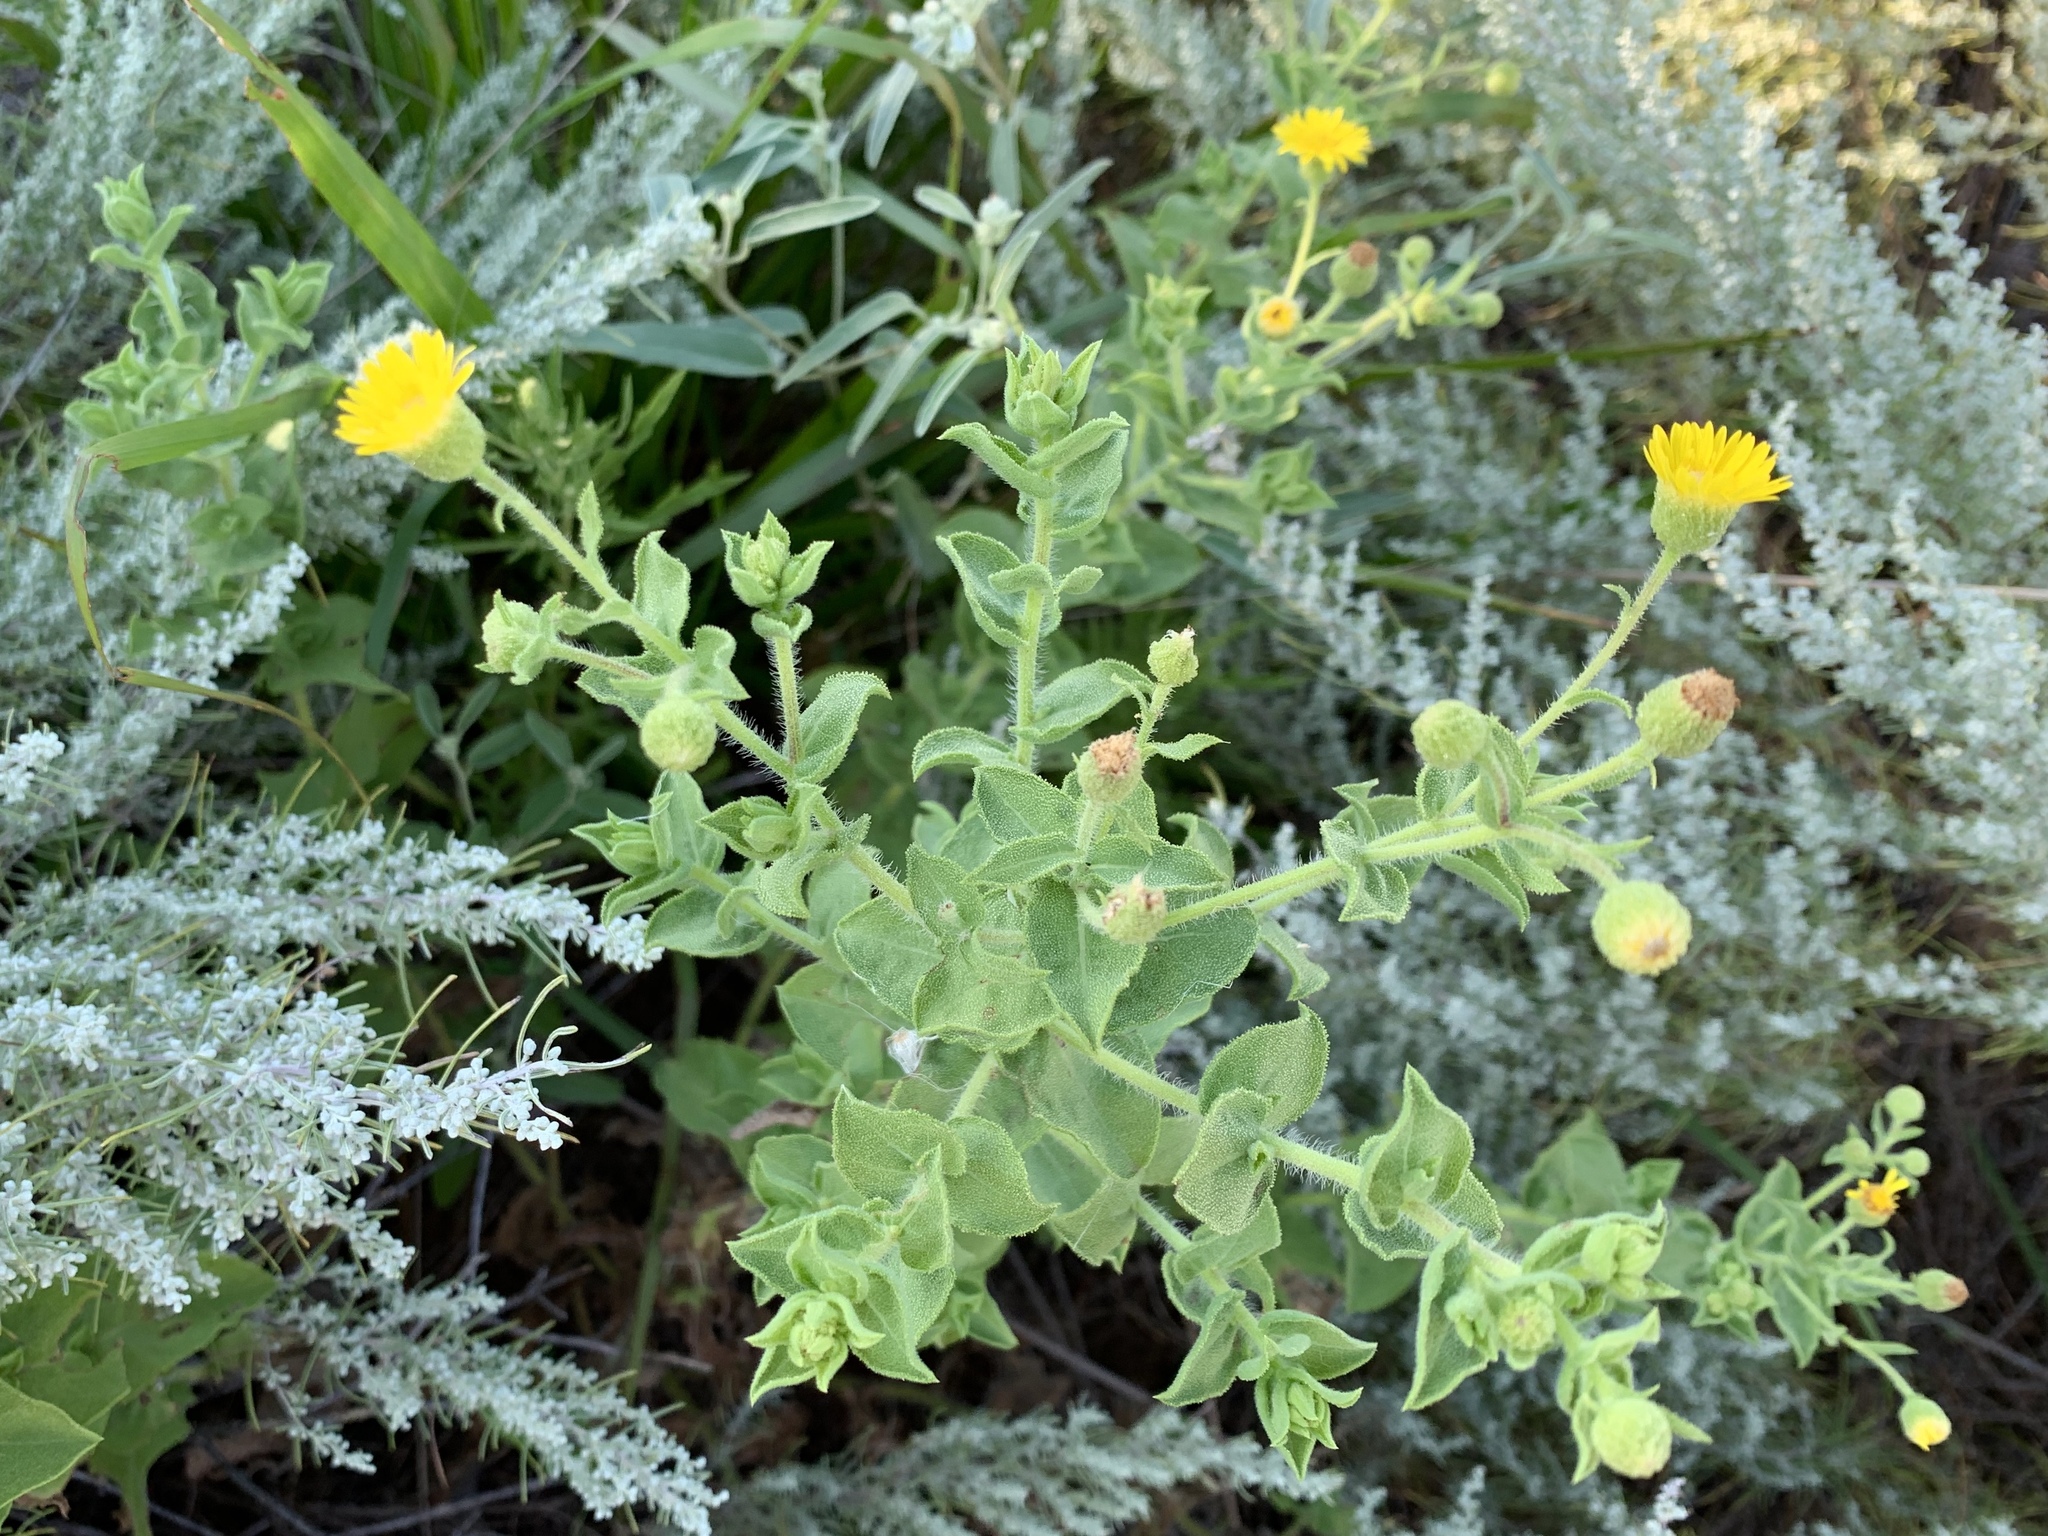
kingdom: Plantae
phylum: Tracheophyta
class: Magnoliopsida
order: Asterales
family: Asteraceae
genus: Heterotheca
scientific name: Heterotheca subaxillaris
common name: Camphorweed
